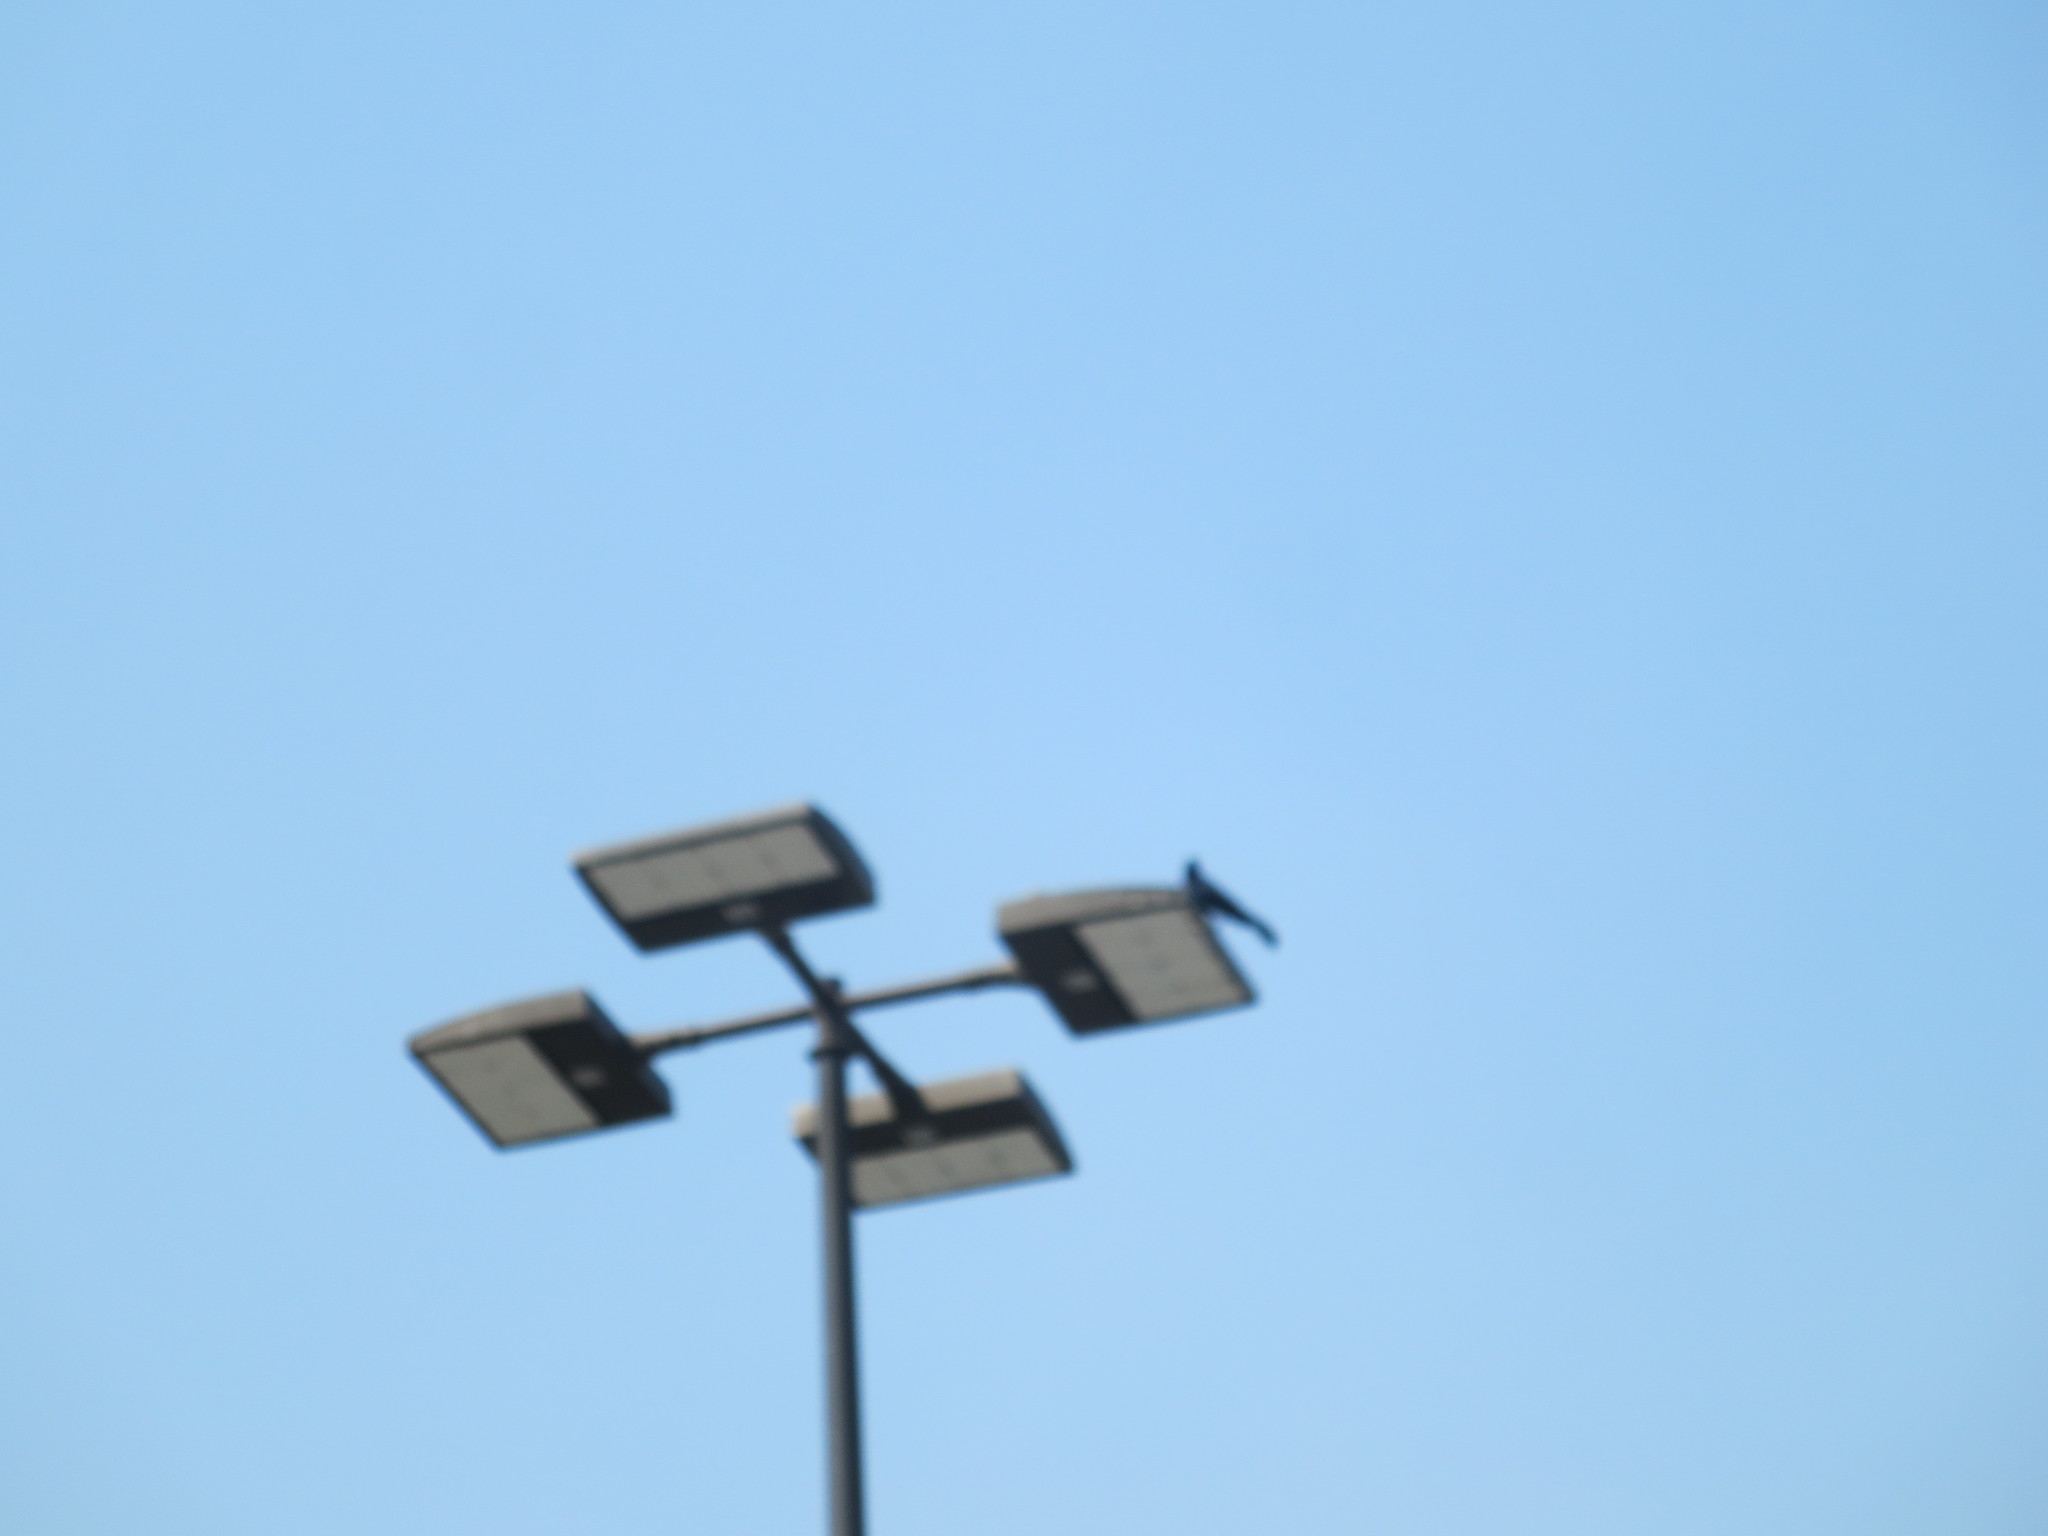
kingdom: Animalia
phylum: Chordata
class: Aves
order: Passeriformes
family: Icteridae
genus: Quiscalus
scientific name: Quiscalus major
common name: Boat-tailed grackle
